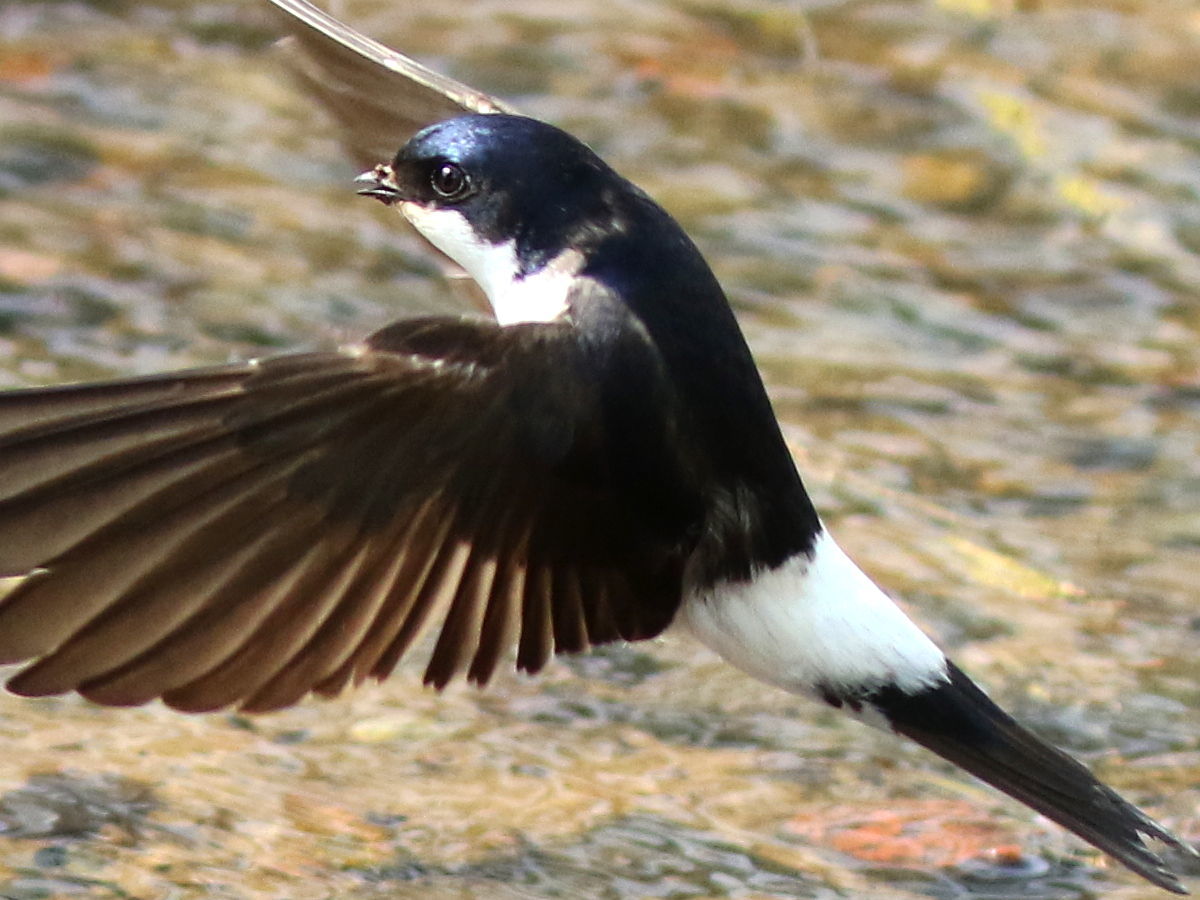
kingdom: Animalia
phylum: Chordata
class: Aves
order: Passeriformes
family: Hirundinidae
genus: Delichon
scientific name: Delichon urbicum
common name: Common house martin
